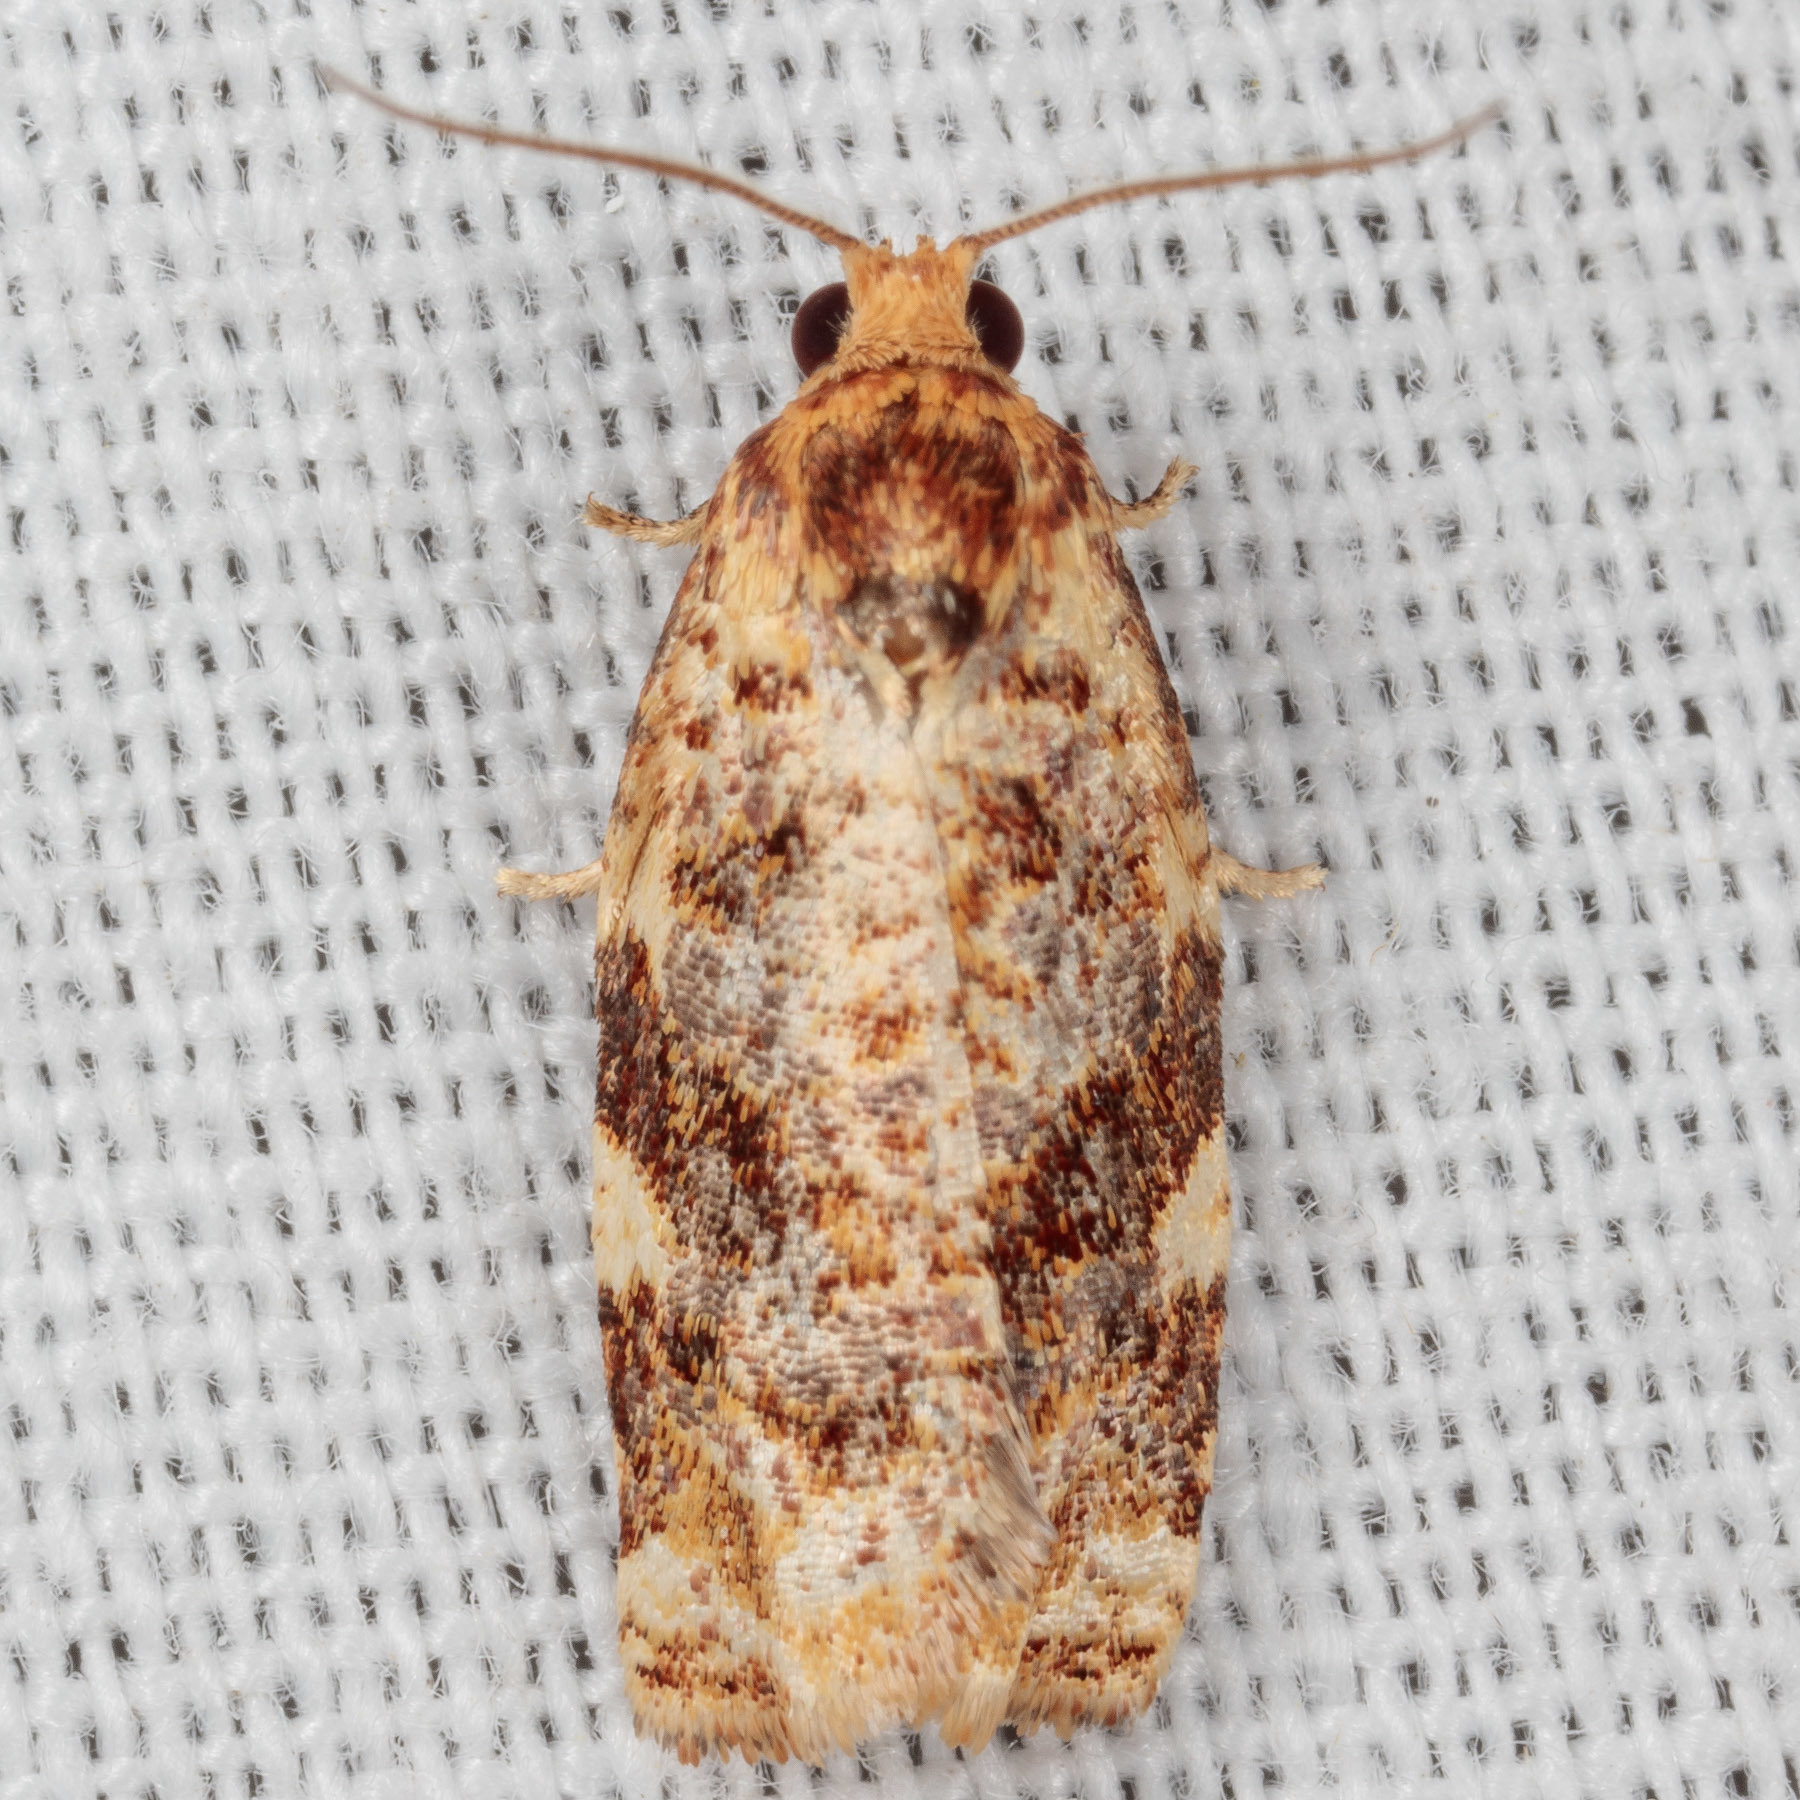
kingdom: Animalia
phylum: Arthropoda
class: Insecta
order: Lepidoptera
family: Tortricidae
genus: Archips
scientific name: Archips argyrospila
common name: Fruit-tree leafroller moth
